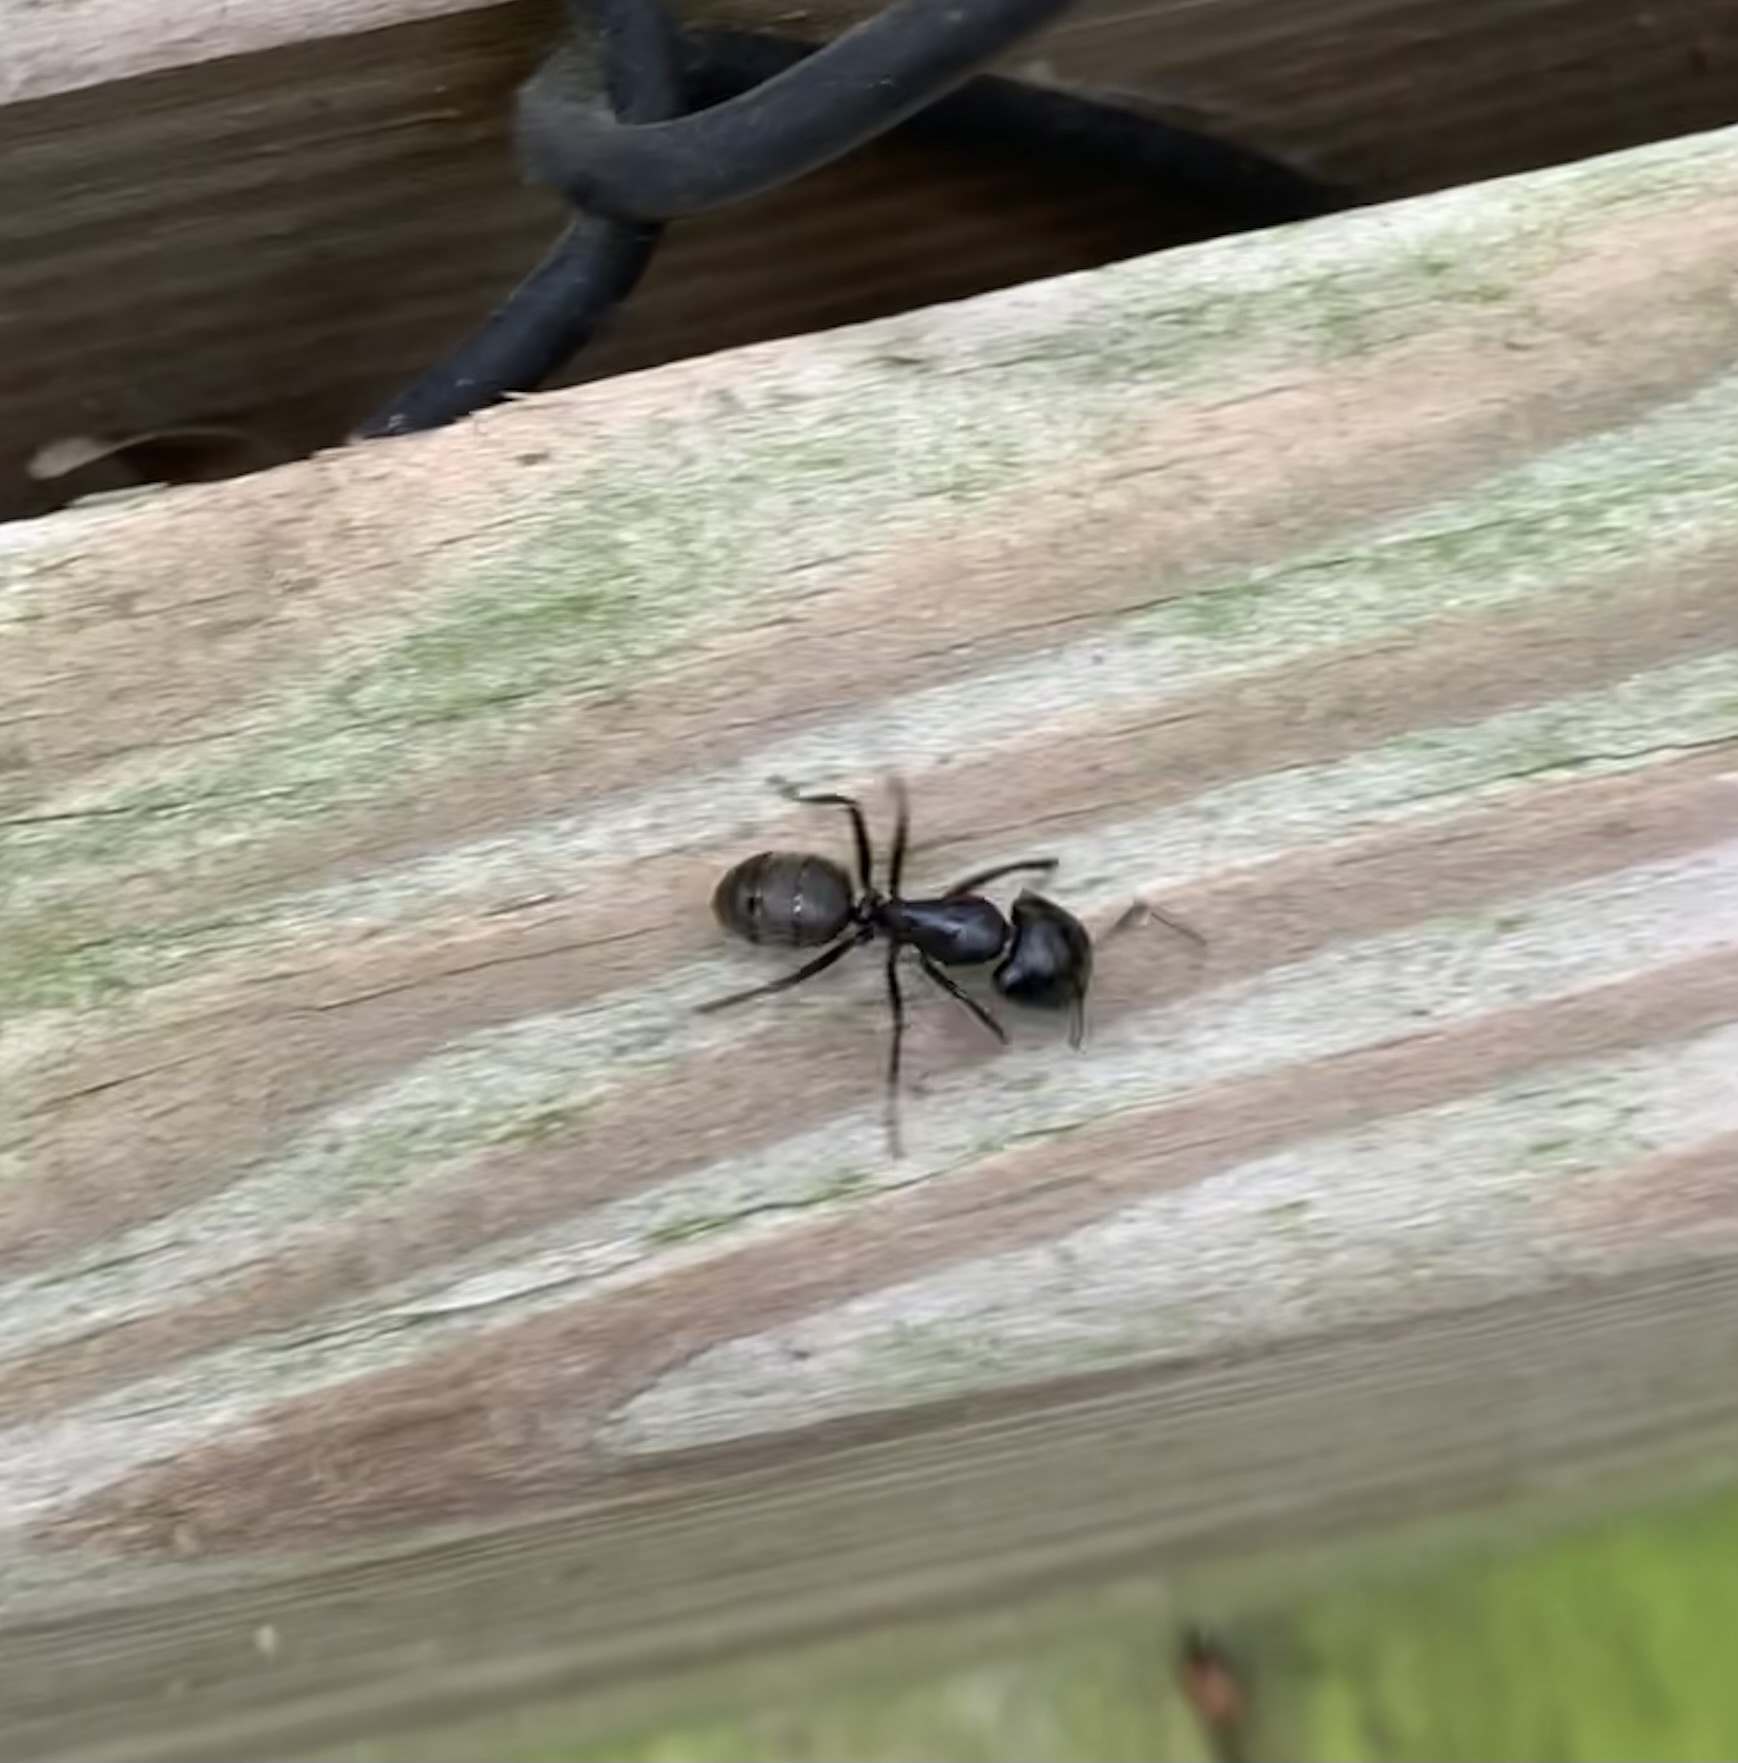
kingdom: Animalia
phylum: Arthropoda
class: Insecta
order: Hymenoptera
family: Formicidae
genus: Camponotus
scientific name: Camponotus pennsylvanicus
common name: Black carpenter ant
